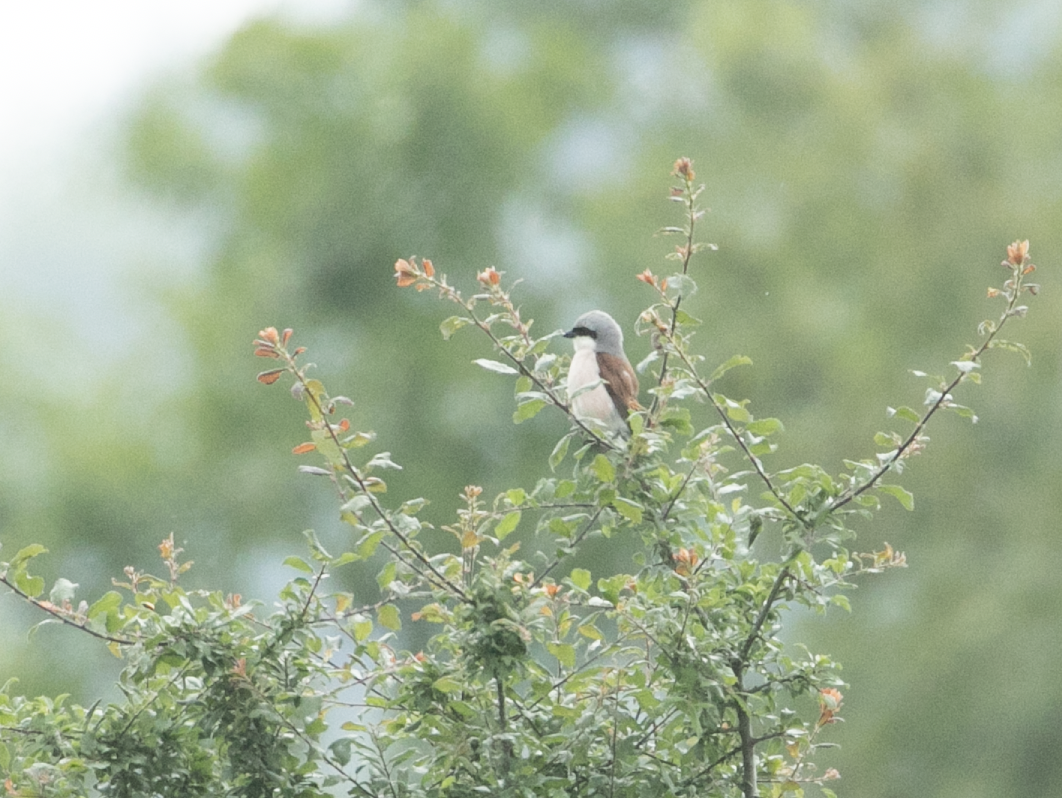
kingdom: Animalia
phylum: Chordata
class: Aves
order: Passeriformes
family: Laniidae
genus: Lanius
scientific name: Lanius collurio
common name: Red-backed shrike
